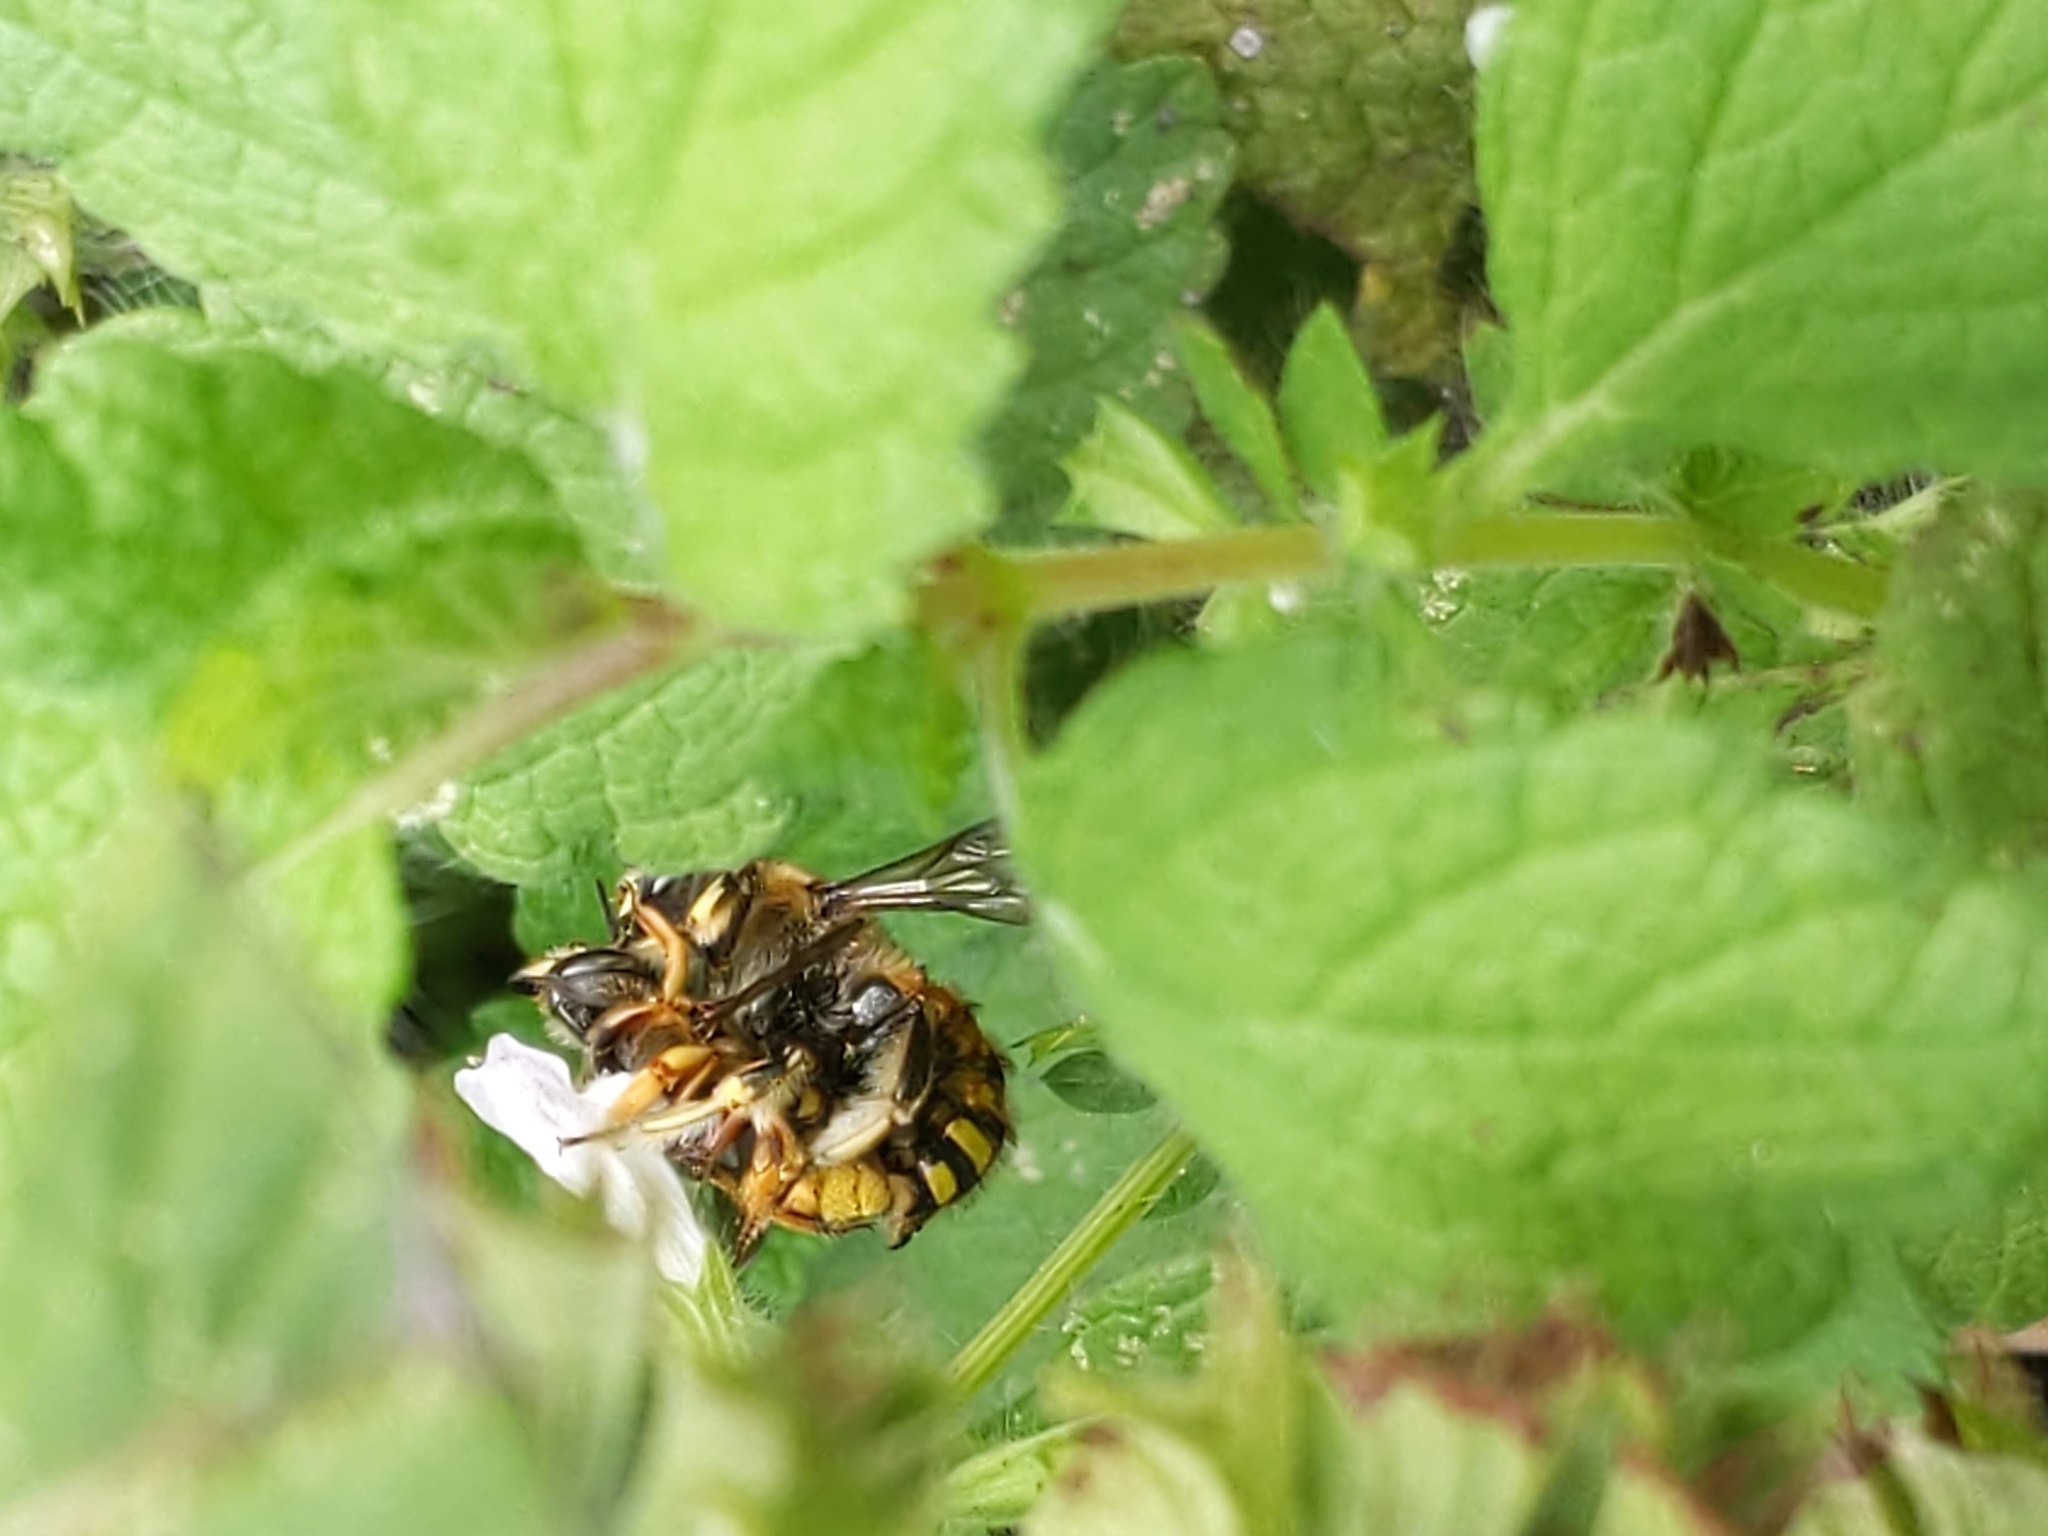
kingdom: Animalia
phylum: Arthropoda
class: Insecta
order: Hymenoptera
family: Megachilidae
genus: Anthidium
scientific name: Anthidium manicatum
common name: Wool carder bee
